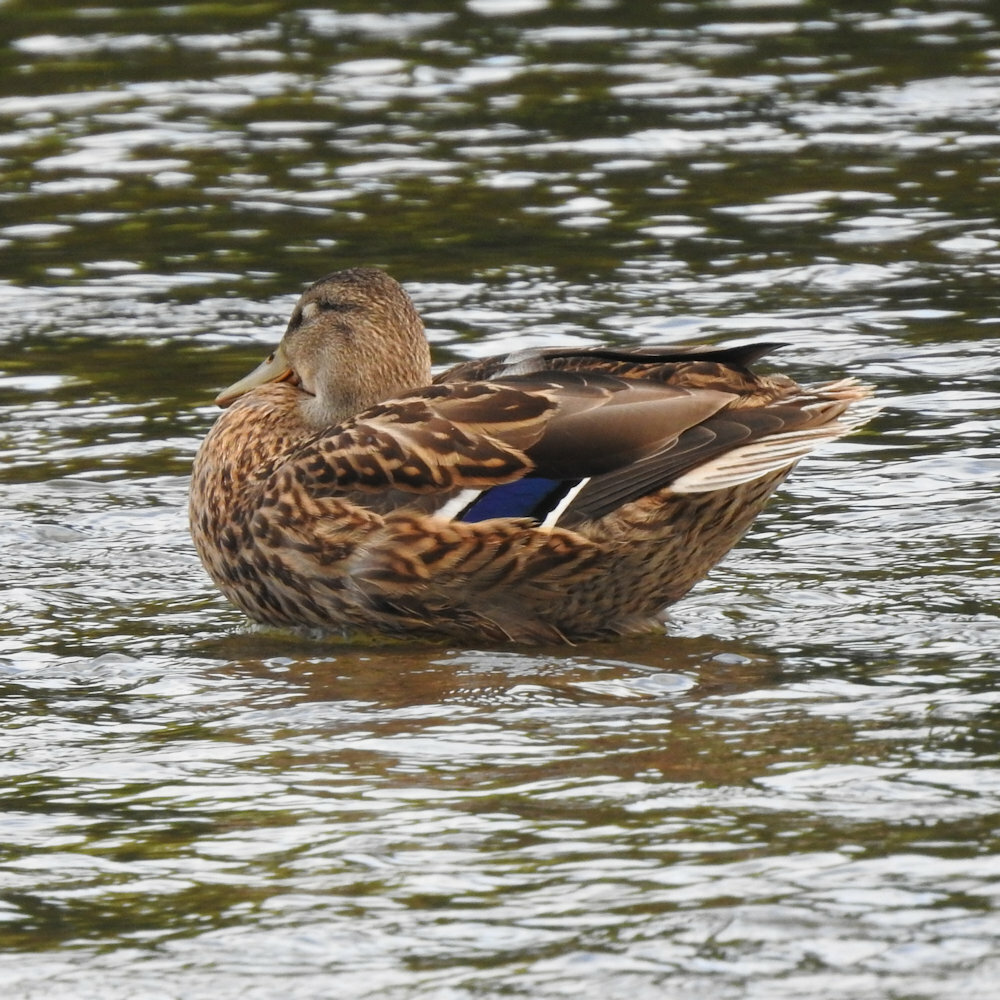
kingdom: Animalia
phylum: Chordata
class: Aves
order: Anseriformes
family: Anatidae
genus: Anas
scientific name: Anas platyrhynchos
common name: Mallard
